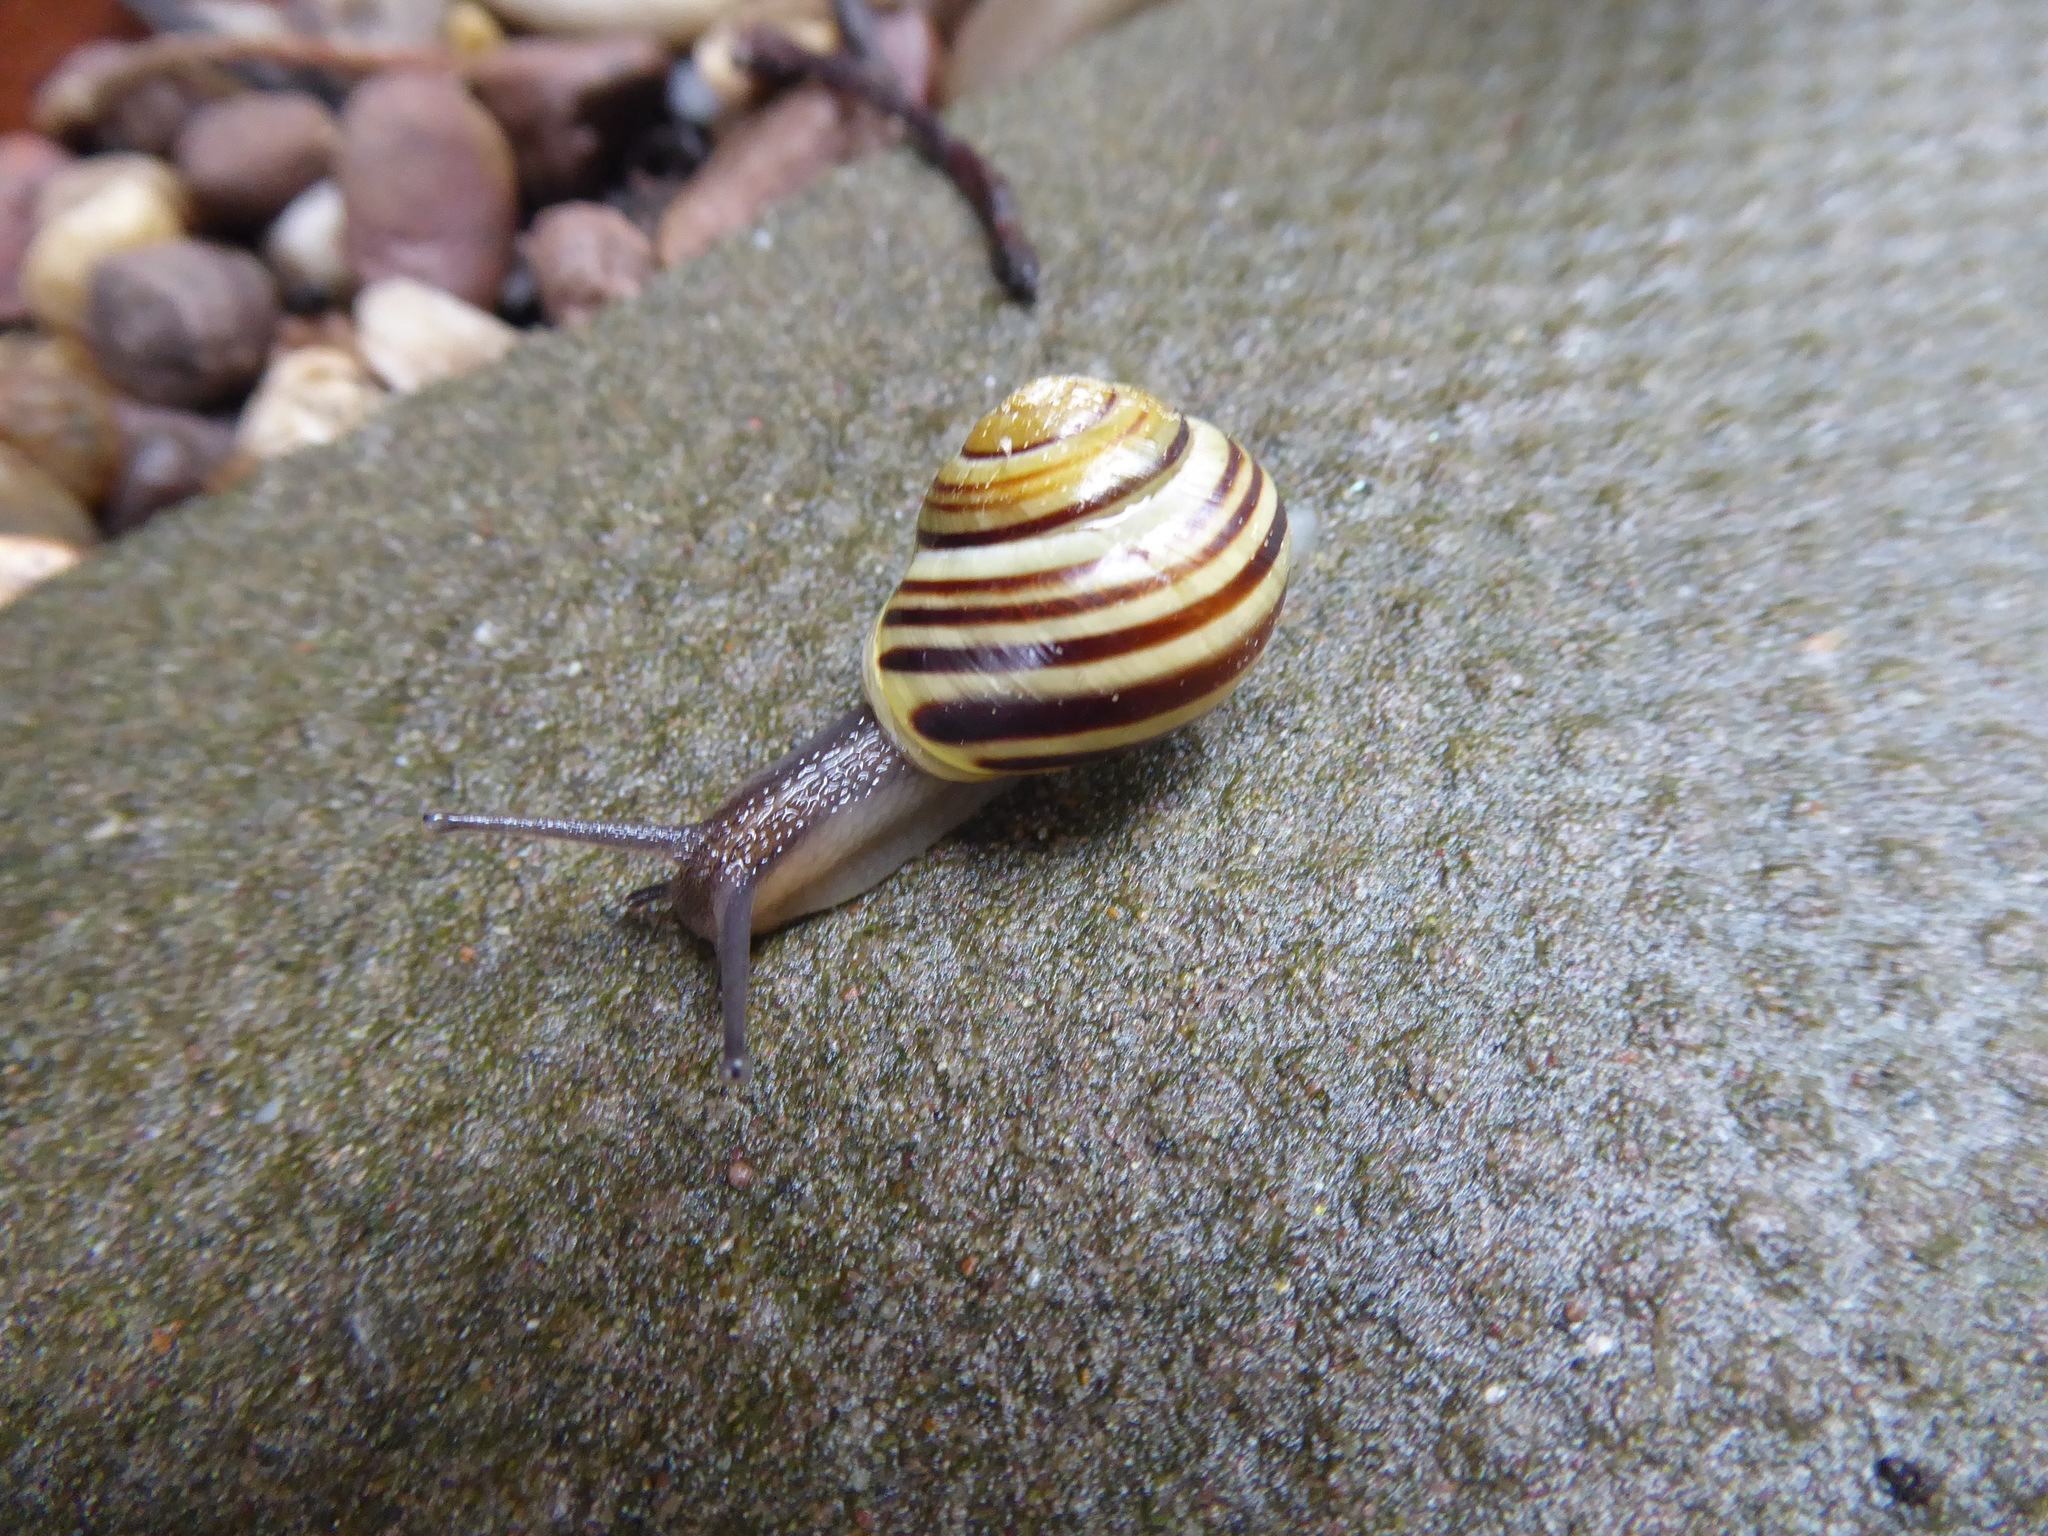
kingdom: Animalia
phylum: Mollusca
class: Gastropoda
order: Stylommatophora
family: Helicidae
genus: Cepaea
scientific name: Cepaea hortensis
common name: White-lip gardensnail
